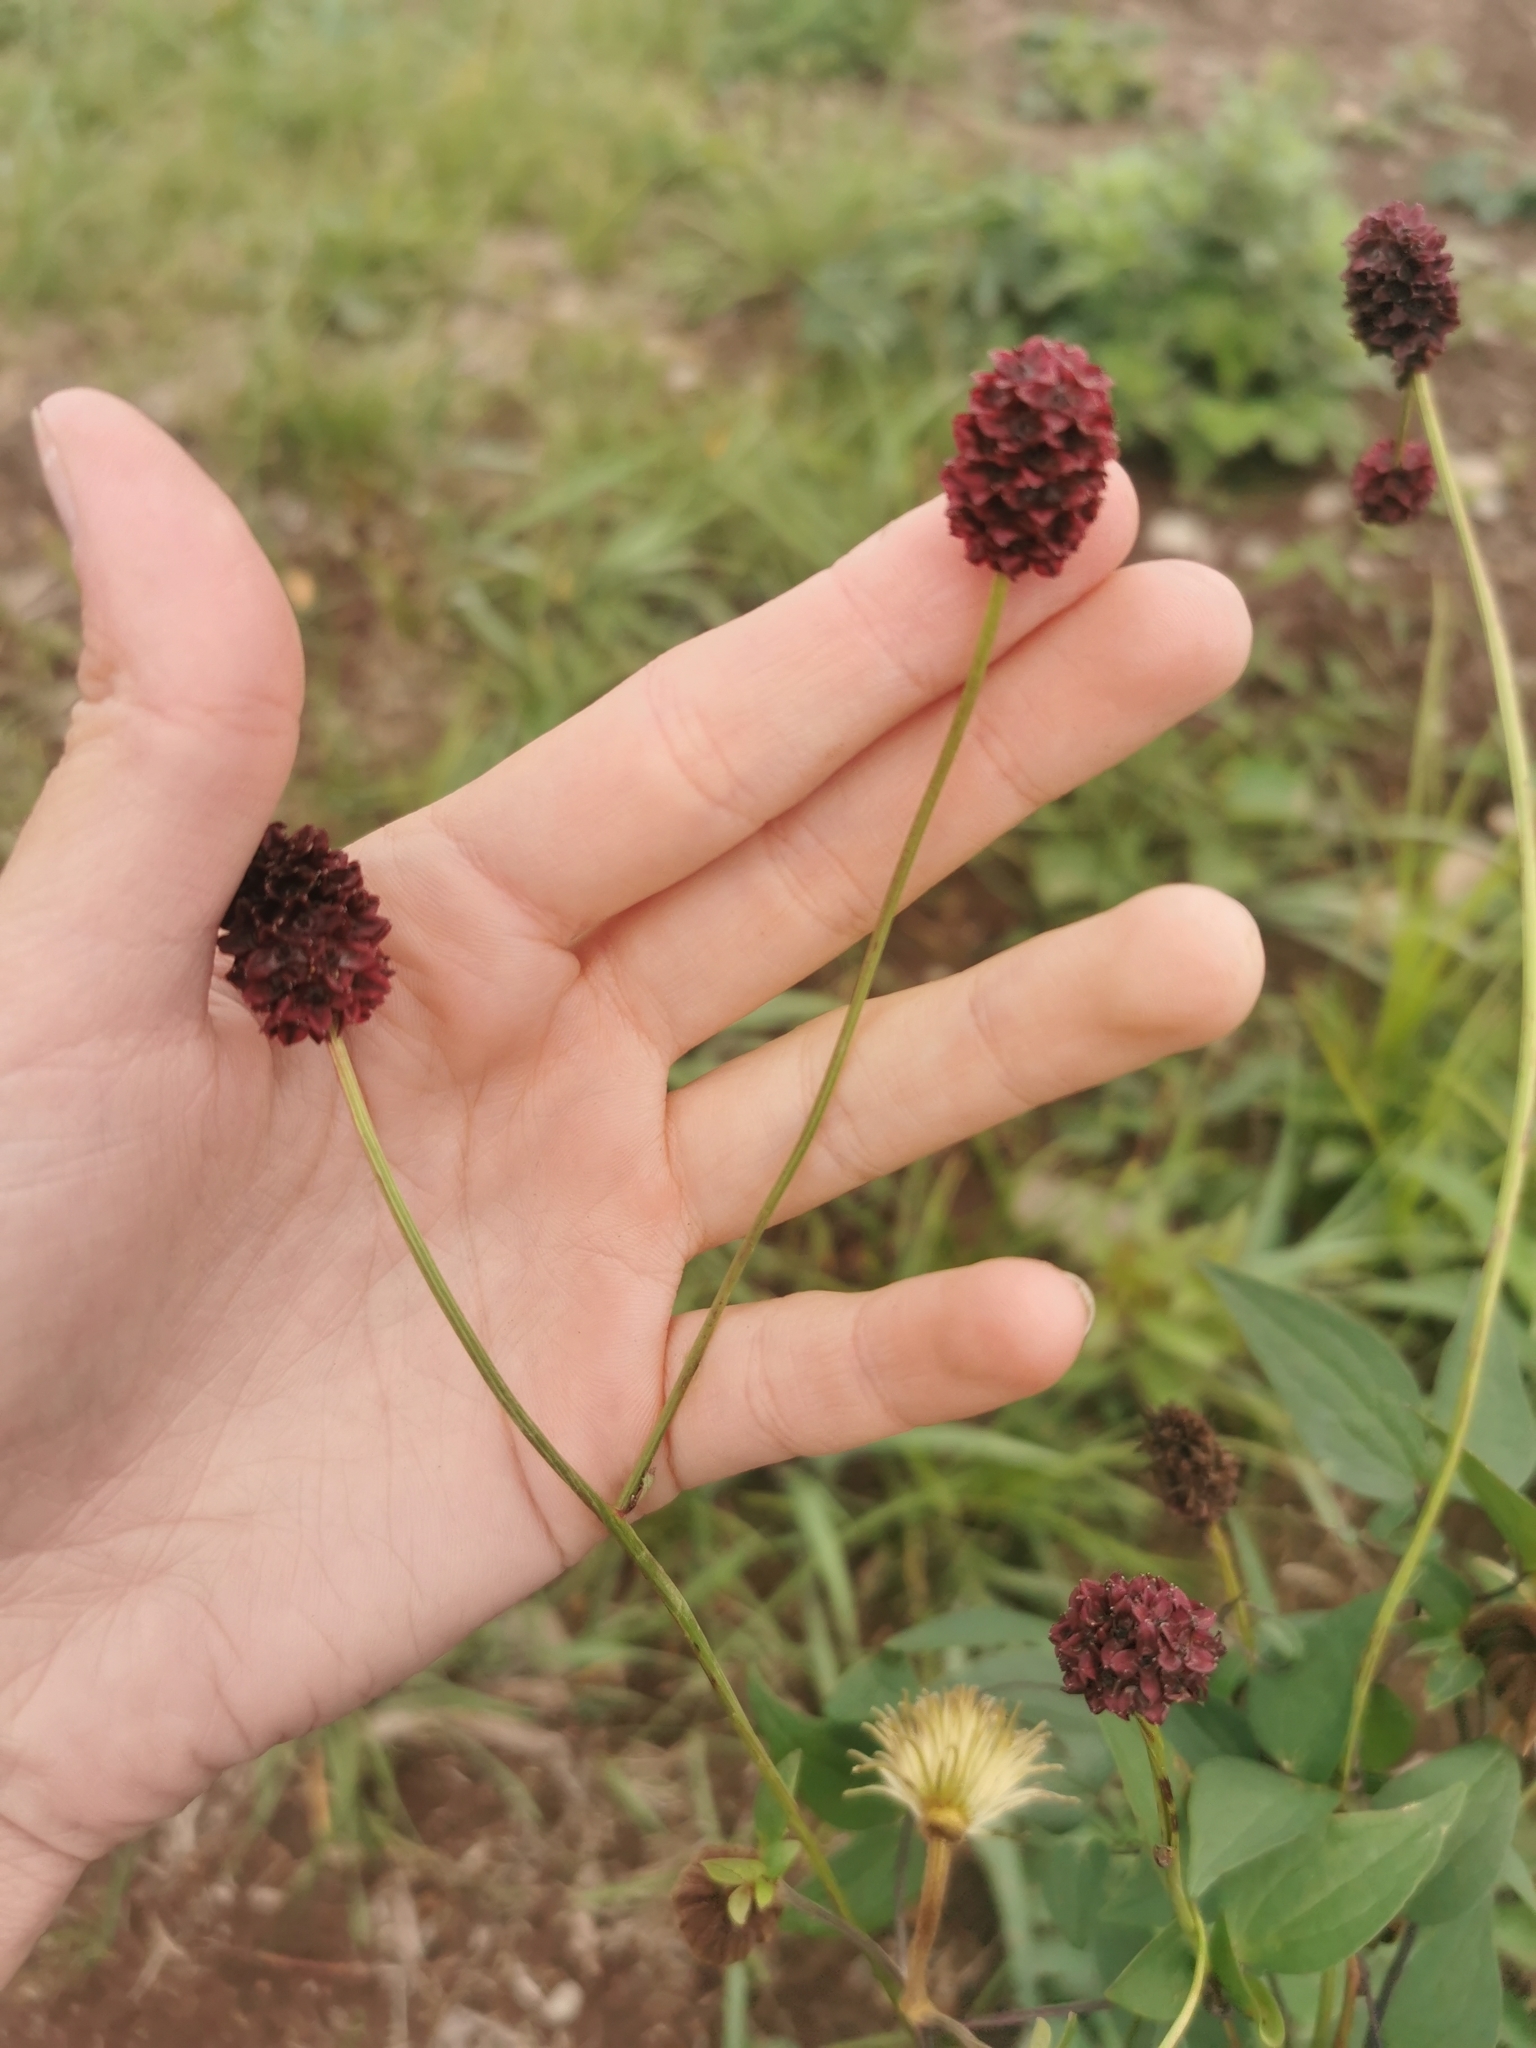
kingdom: Plantae
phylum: Tracheophyta
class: Magnoliopsida
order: Rosales
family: Rosaceae
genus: Sanguisorba
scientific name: Sanguisorba officinalis
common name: Great burnet
